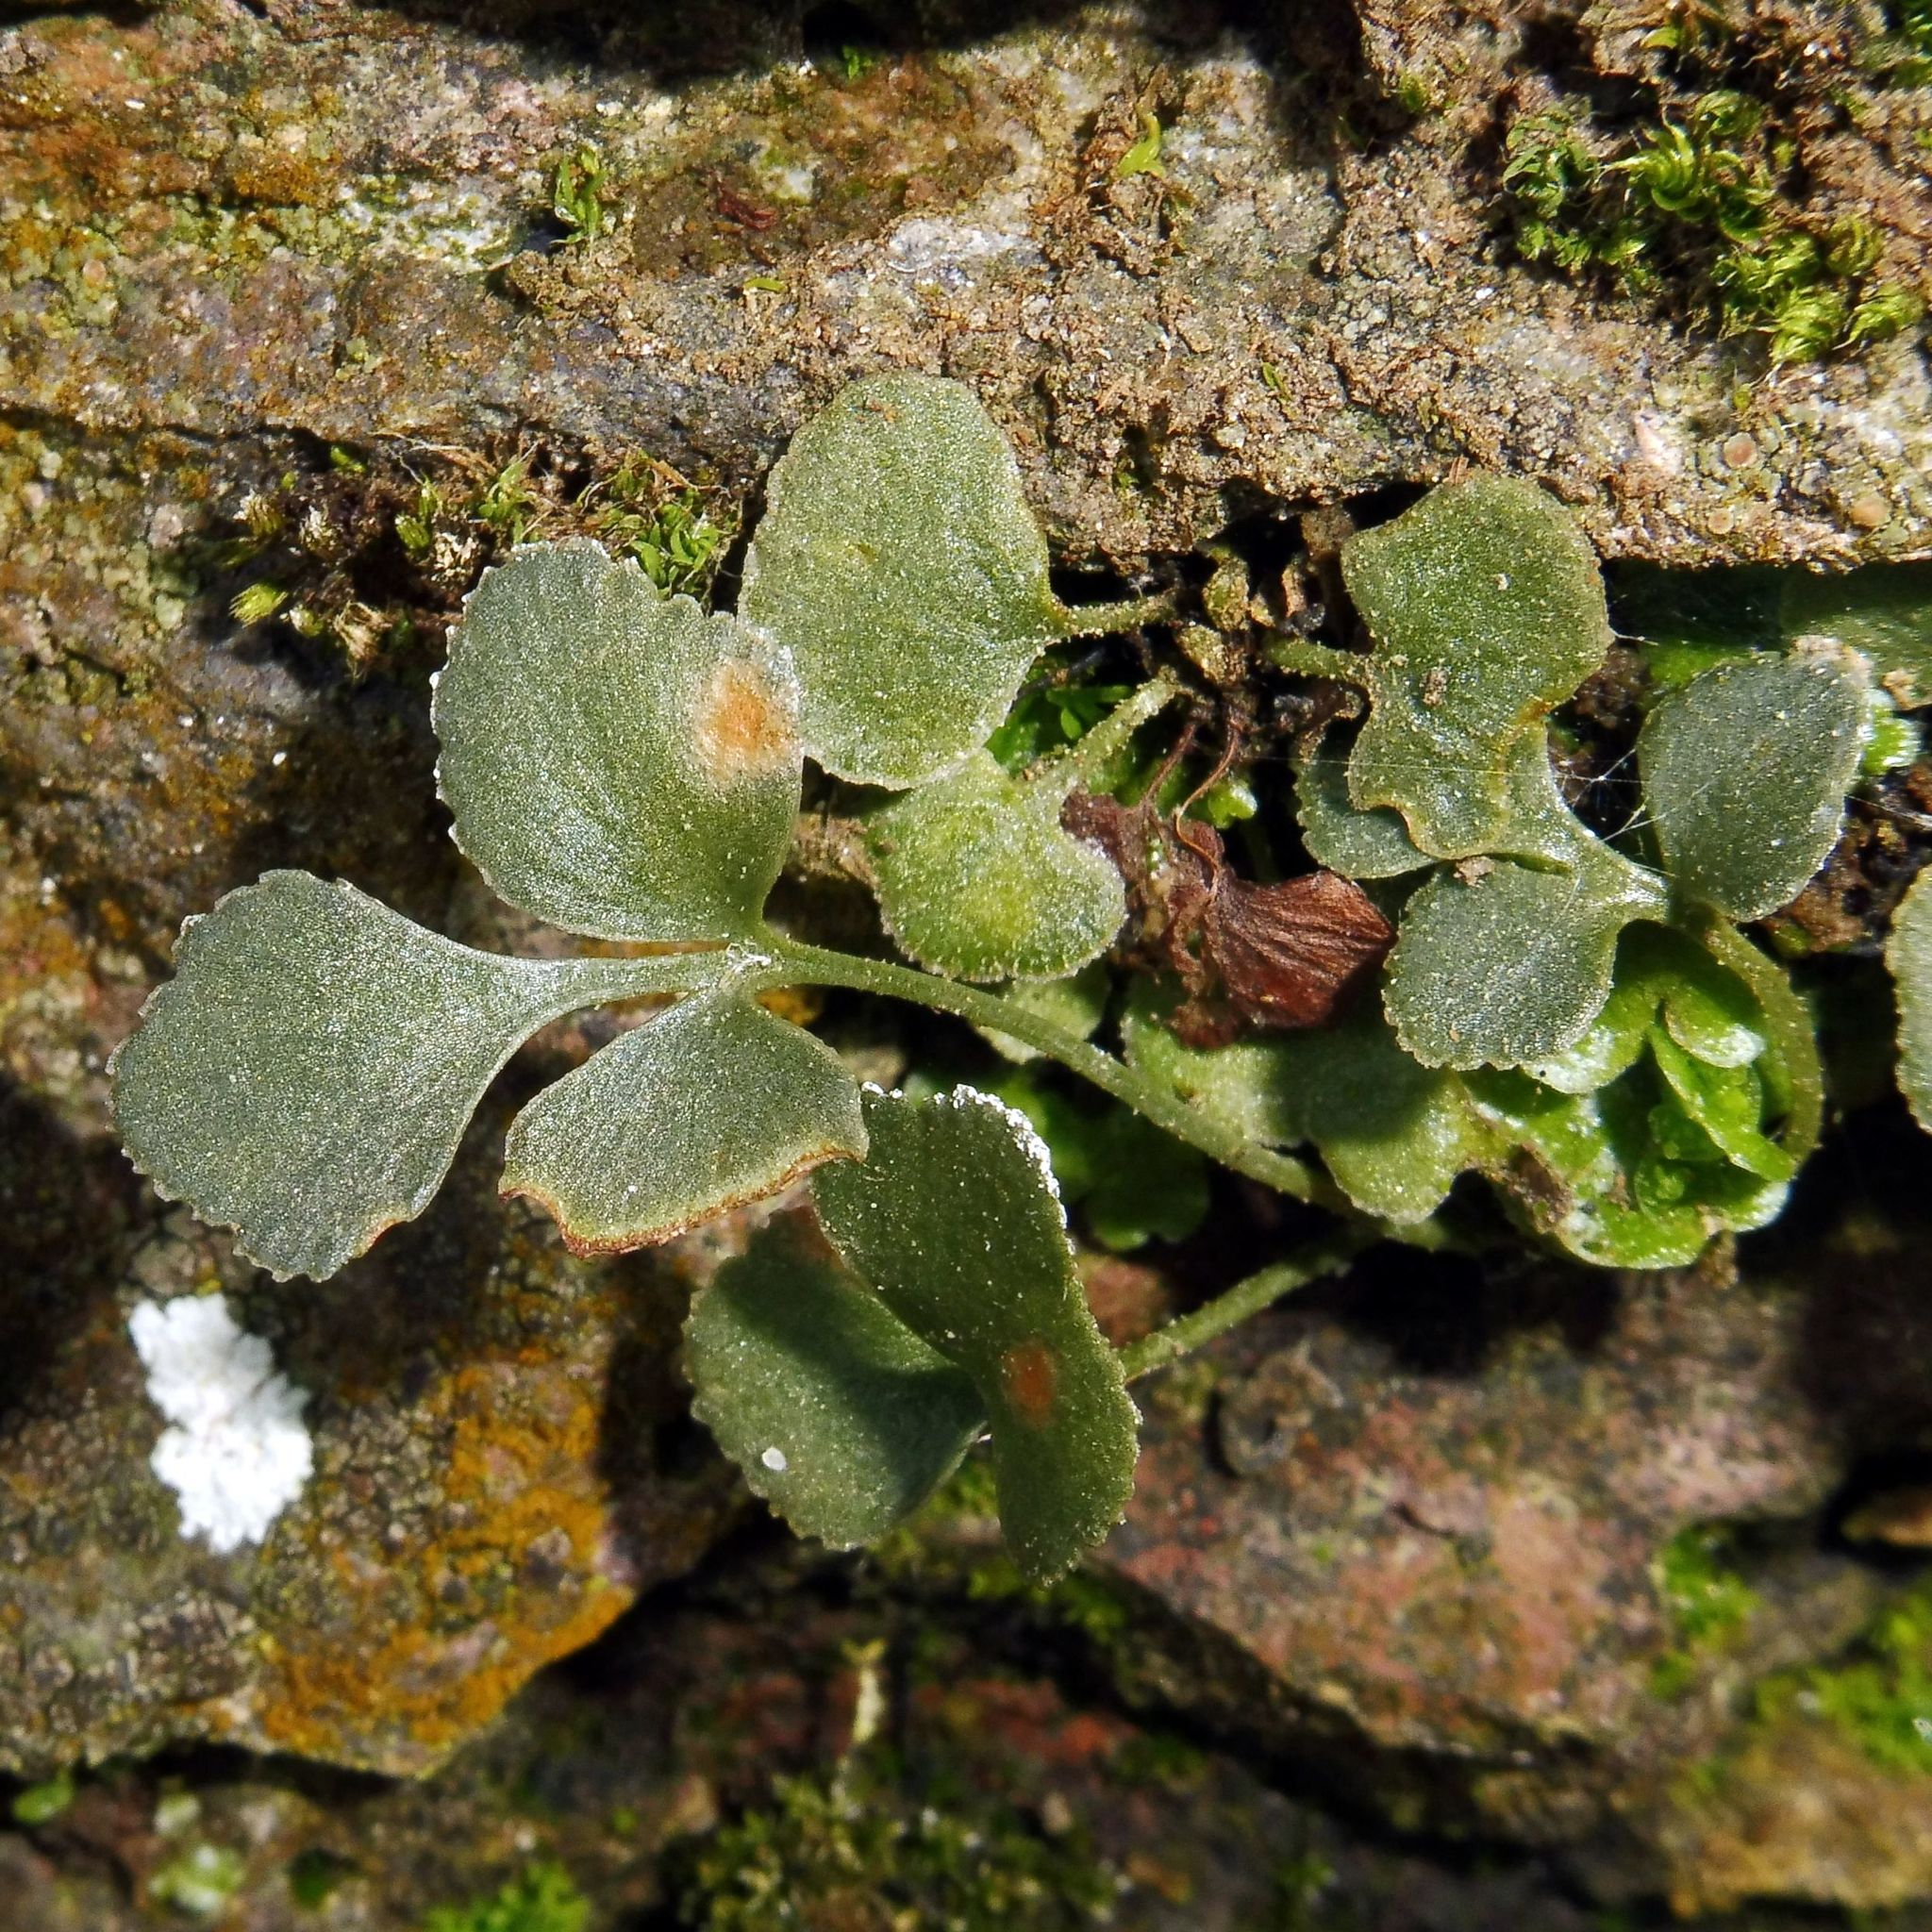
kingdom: Plantae
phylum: Tracheophyta
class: Polypodiopsida
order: Polypodiales
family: Aspleniaceae
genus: Asplenium
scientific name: Asplenium ruta-muraria
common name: Wall-rue
